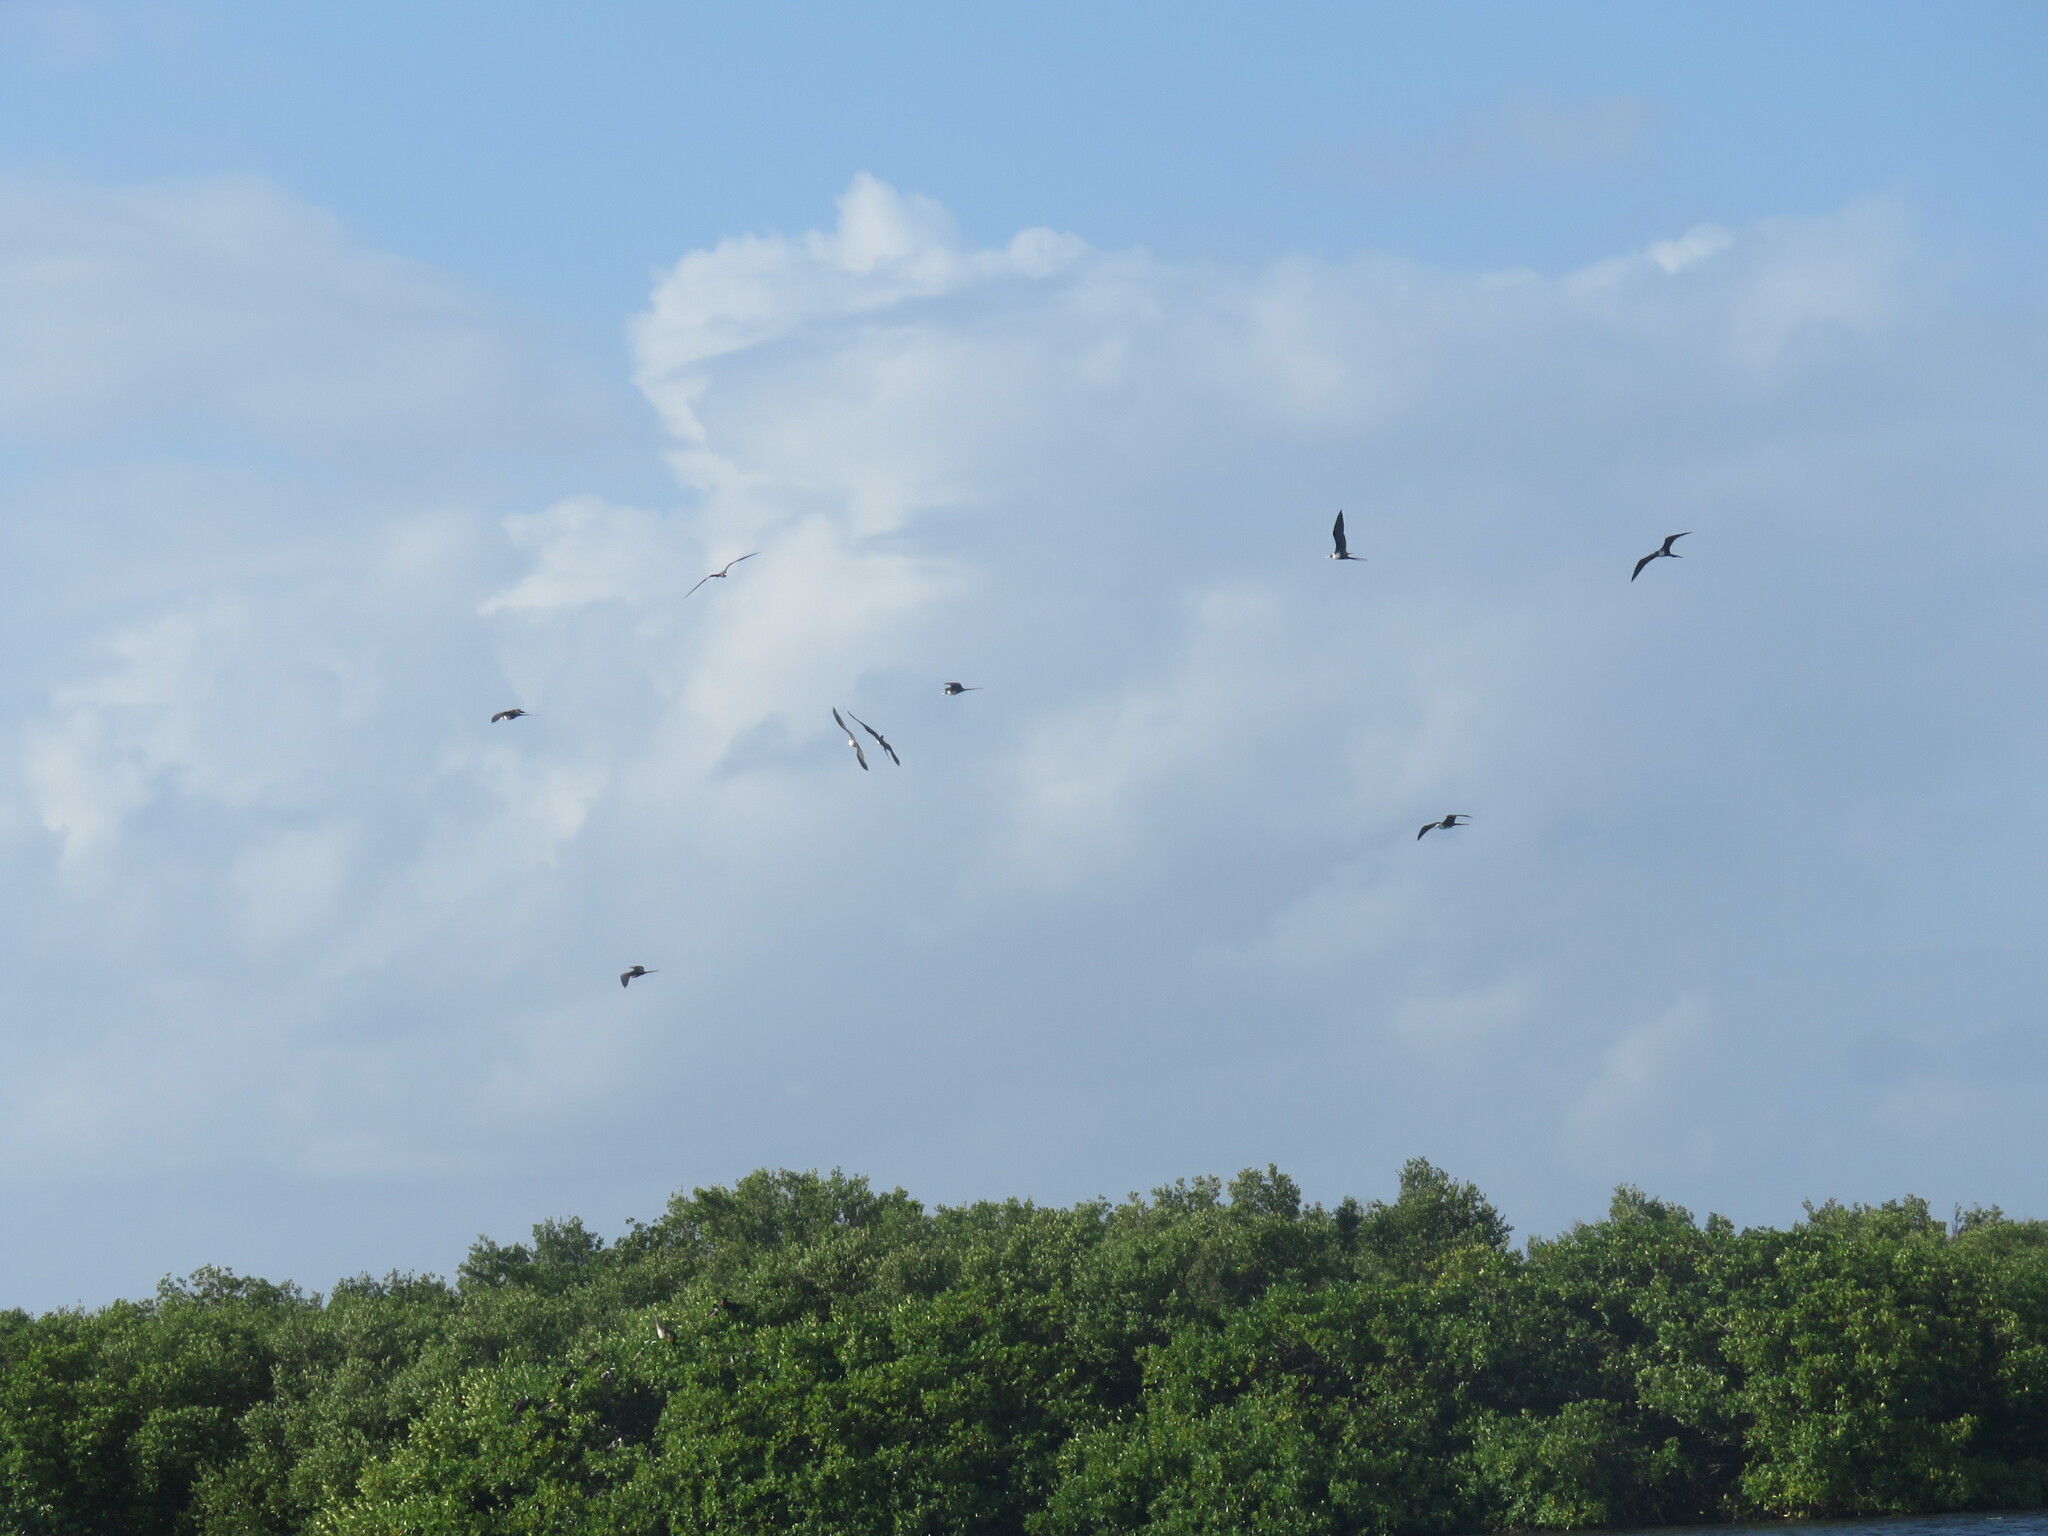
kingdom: Animalia
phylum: Chordata
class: Aves
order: Suliformes
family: Fregatidae
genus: Fregata
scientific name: Fregata magnificens
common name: Magnificent frigatebird
